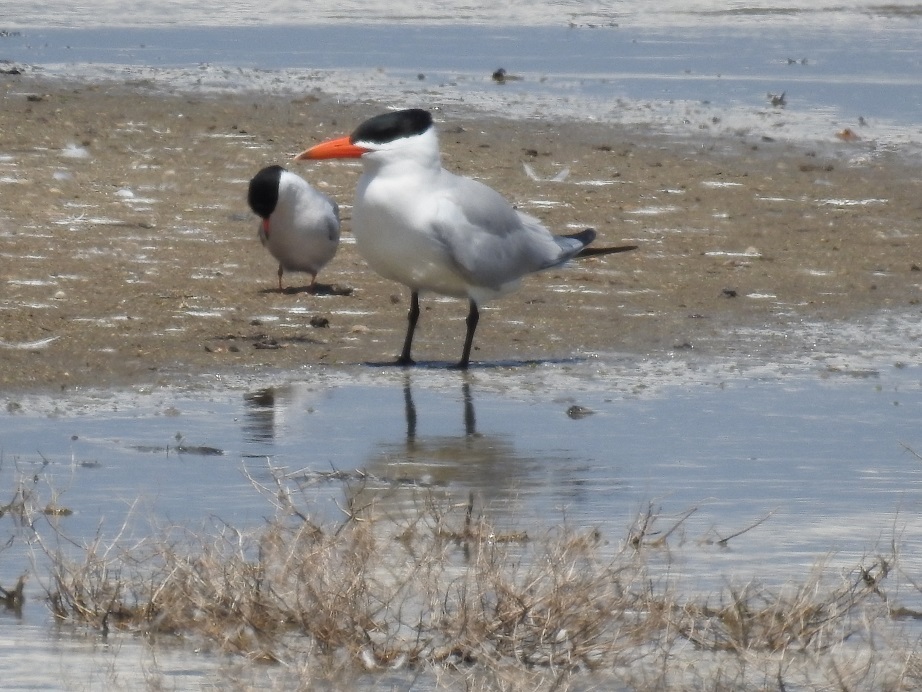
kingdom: Animalia
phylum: Chordata
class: Aves
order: Charadriiformes
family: Laridae
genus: Hydroprogne
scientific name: Hydroprogne caspia
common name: Caspian tern
